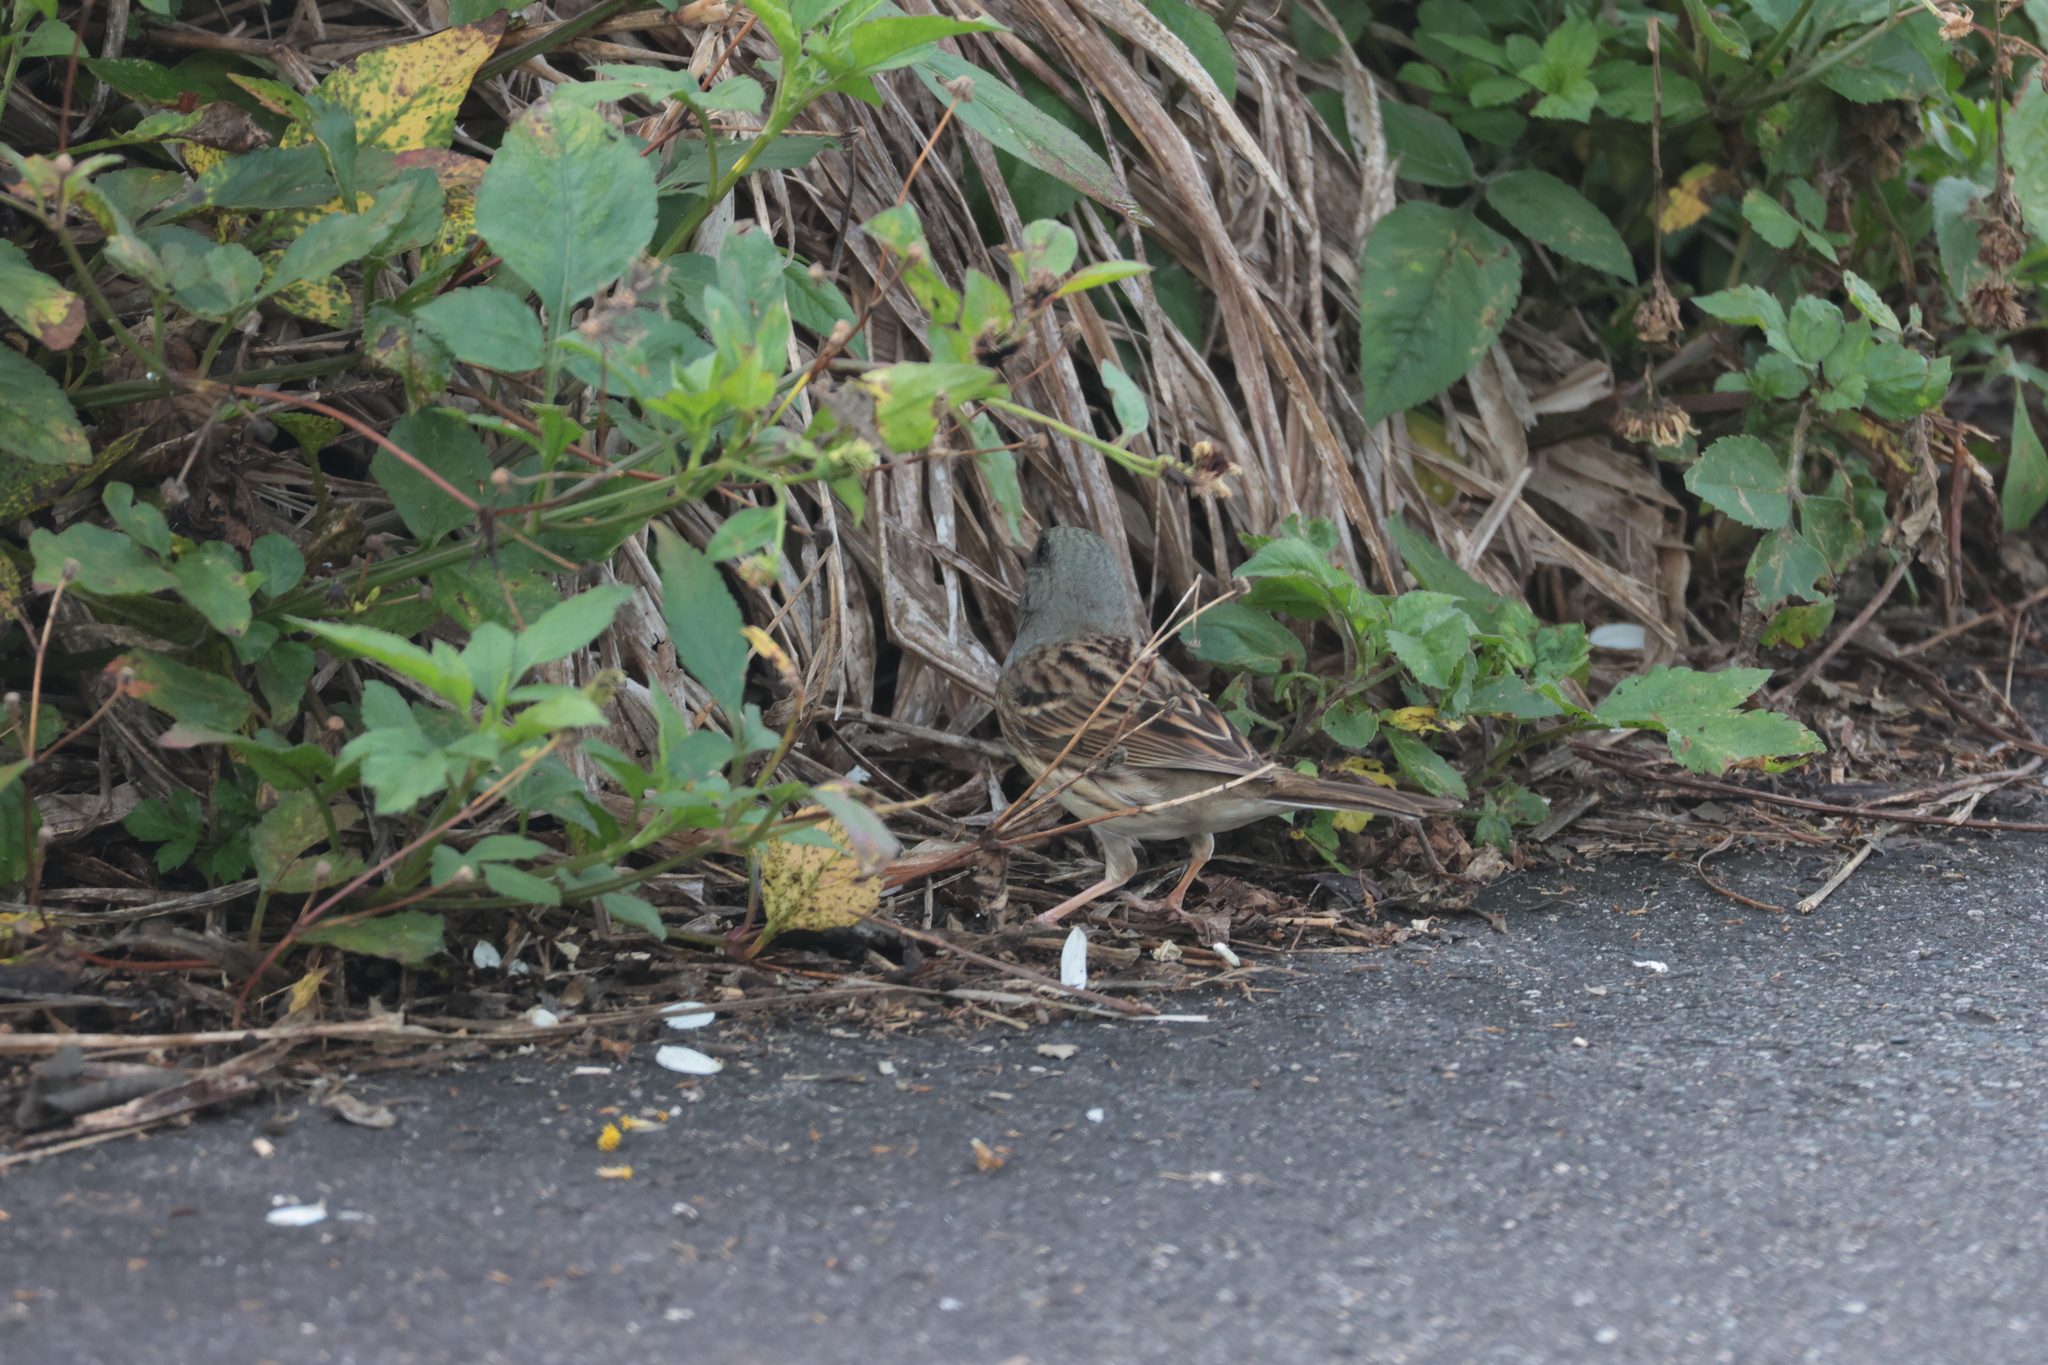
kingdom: Animalia
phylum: Chordata
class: Aves
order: Passeriformes
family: Emberizidae
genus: Emberiza
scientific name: Emberiza spodocephala
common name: Black-faced bunting
